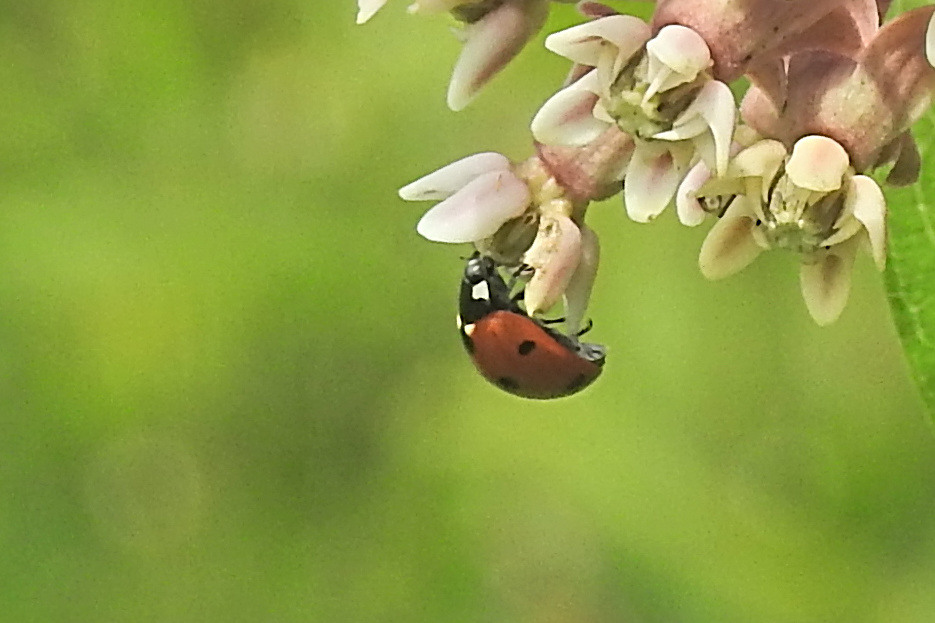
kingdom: Animalia
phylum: Arthropoda
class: Insecta
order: Coleoptera
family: Coccinellidae
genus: Coccinella
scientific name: Coccinella septempunctata
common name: Sevenspotted lady beetle
